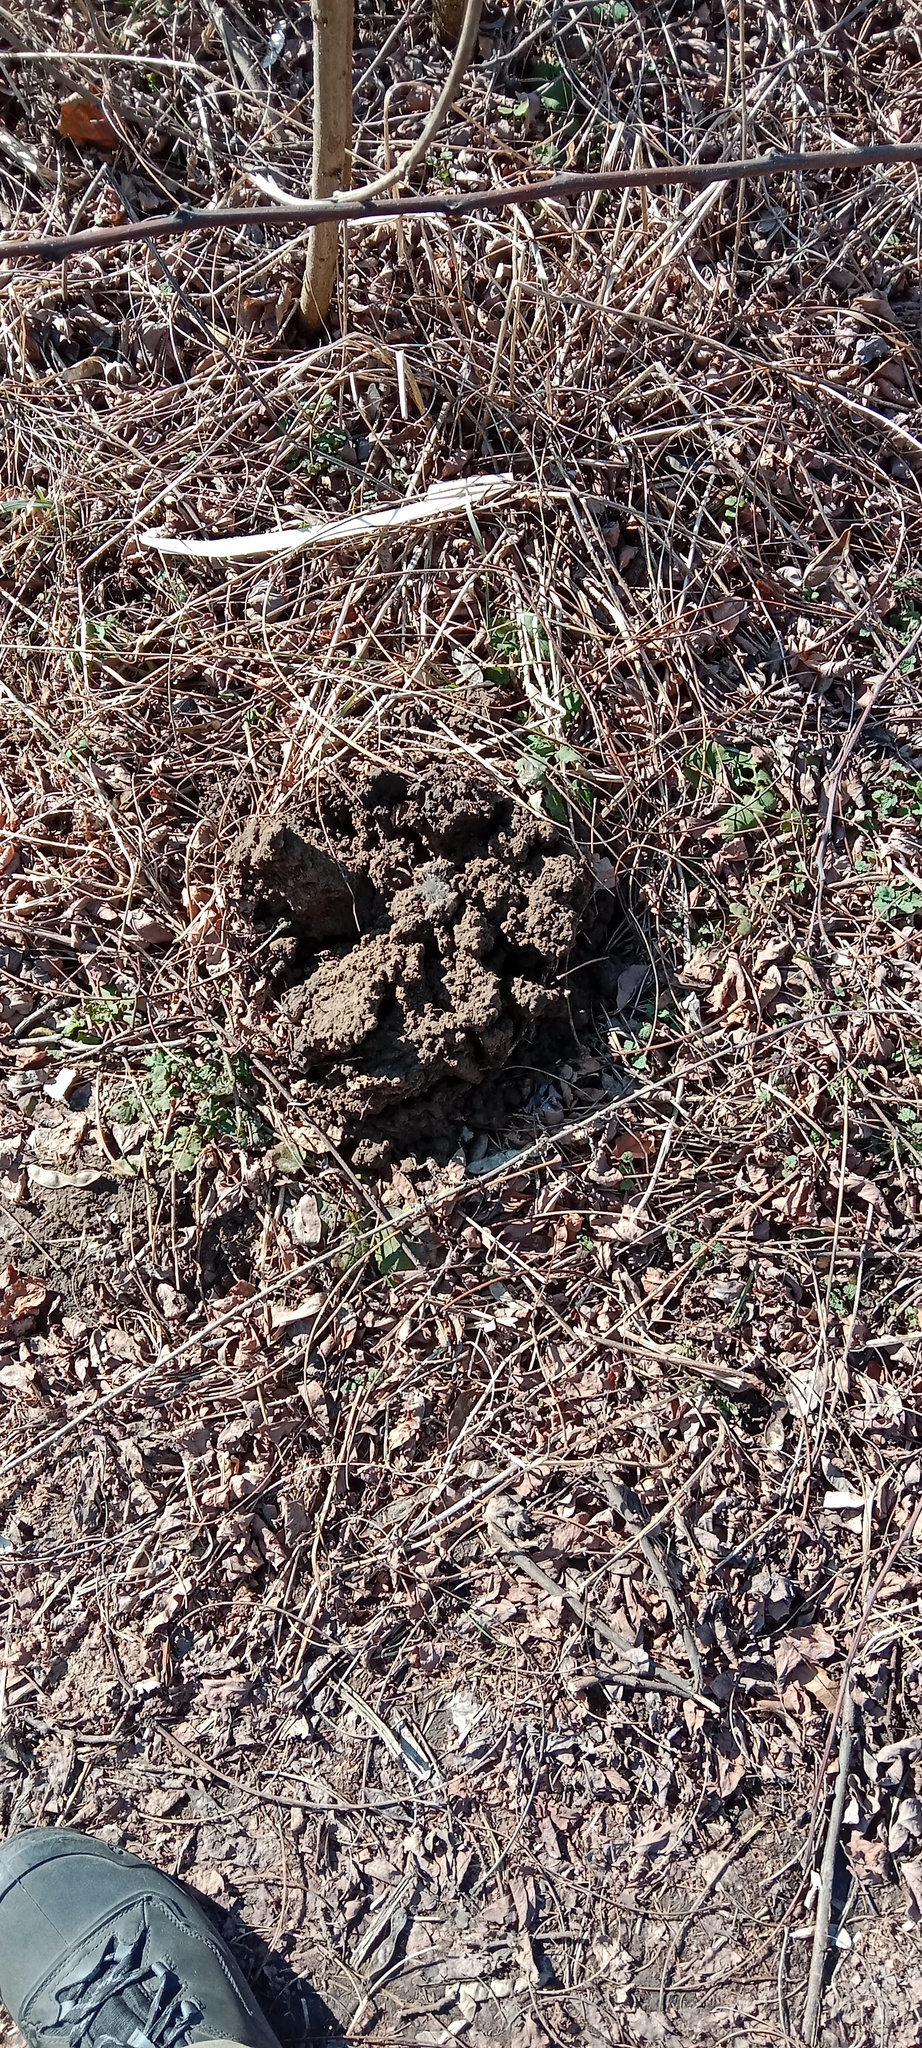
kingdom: Animalia
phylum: Chordata
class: Mammalia
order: Soricomorpha
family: Talpidae
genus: Talpa
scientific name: Talpa europaea
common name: European mole
